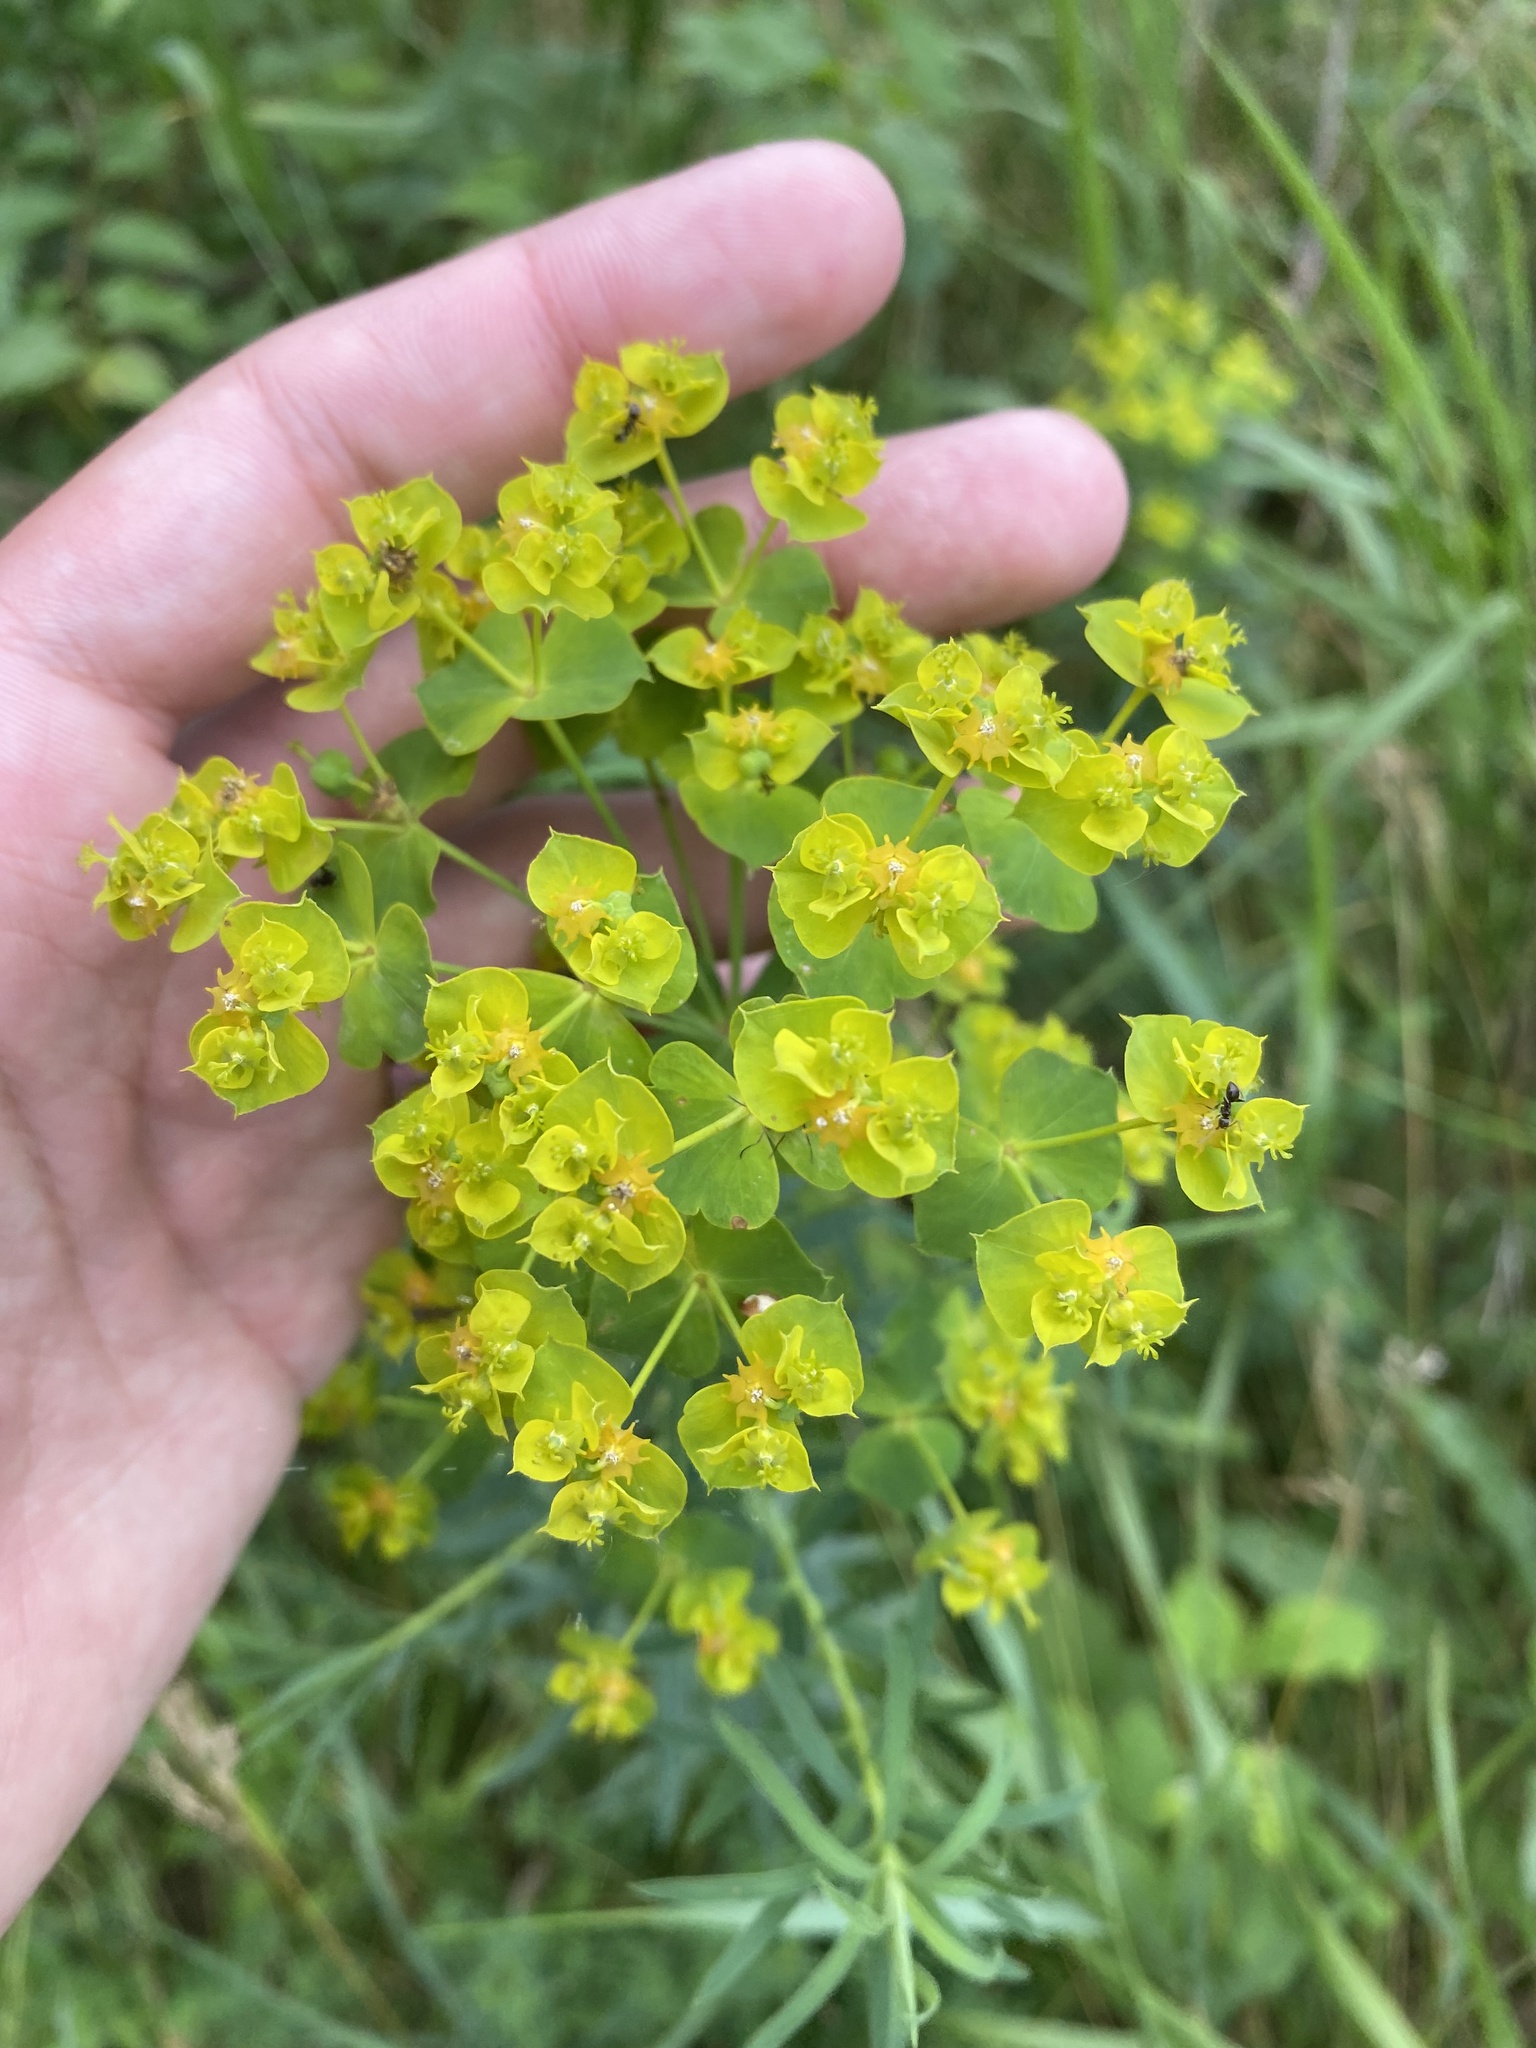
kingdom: Plantae
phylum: Tracheophyta
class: Magnoliopsida
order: Malpighiales
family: Euphorbiaceae
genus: Euphorbia
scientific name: Euphorbia virgata
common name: Leafy spurge
